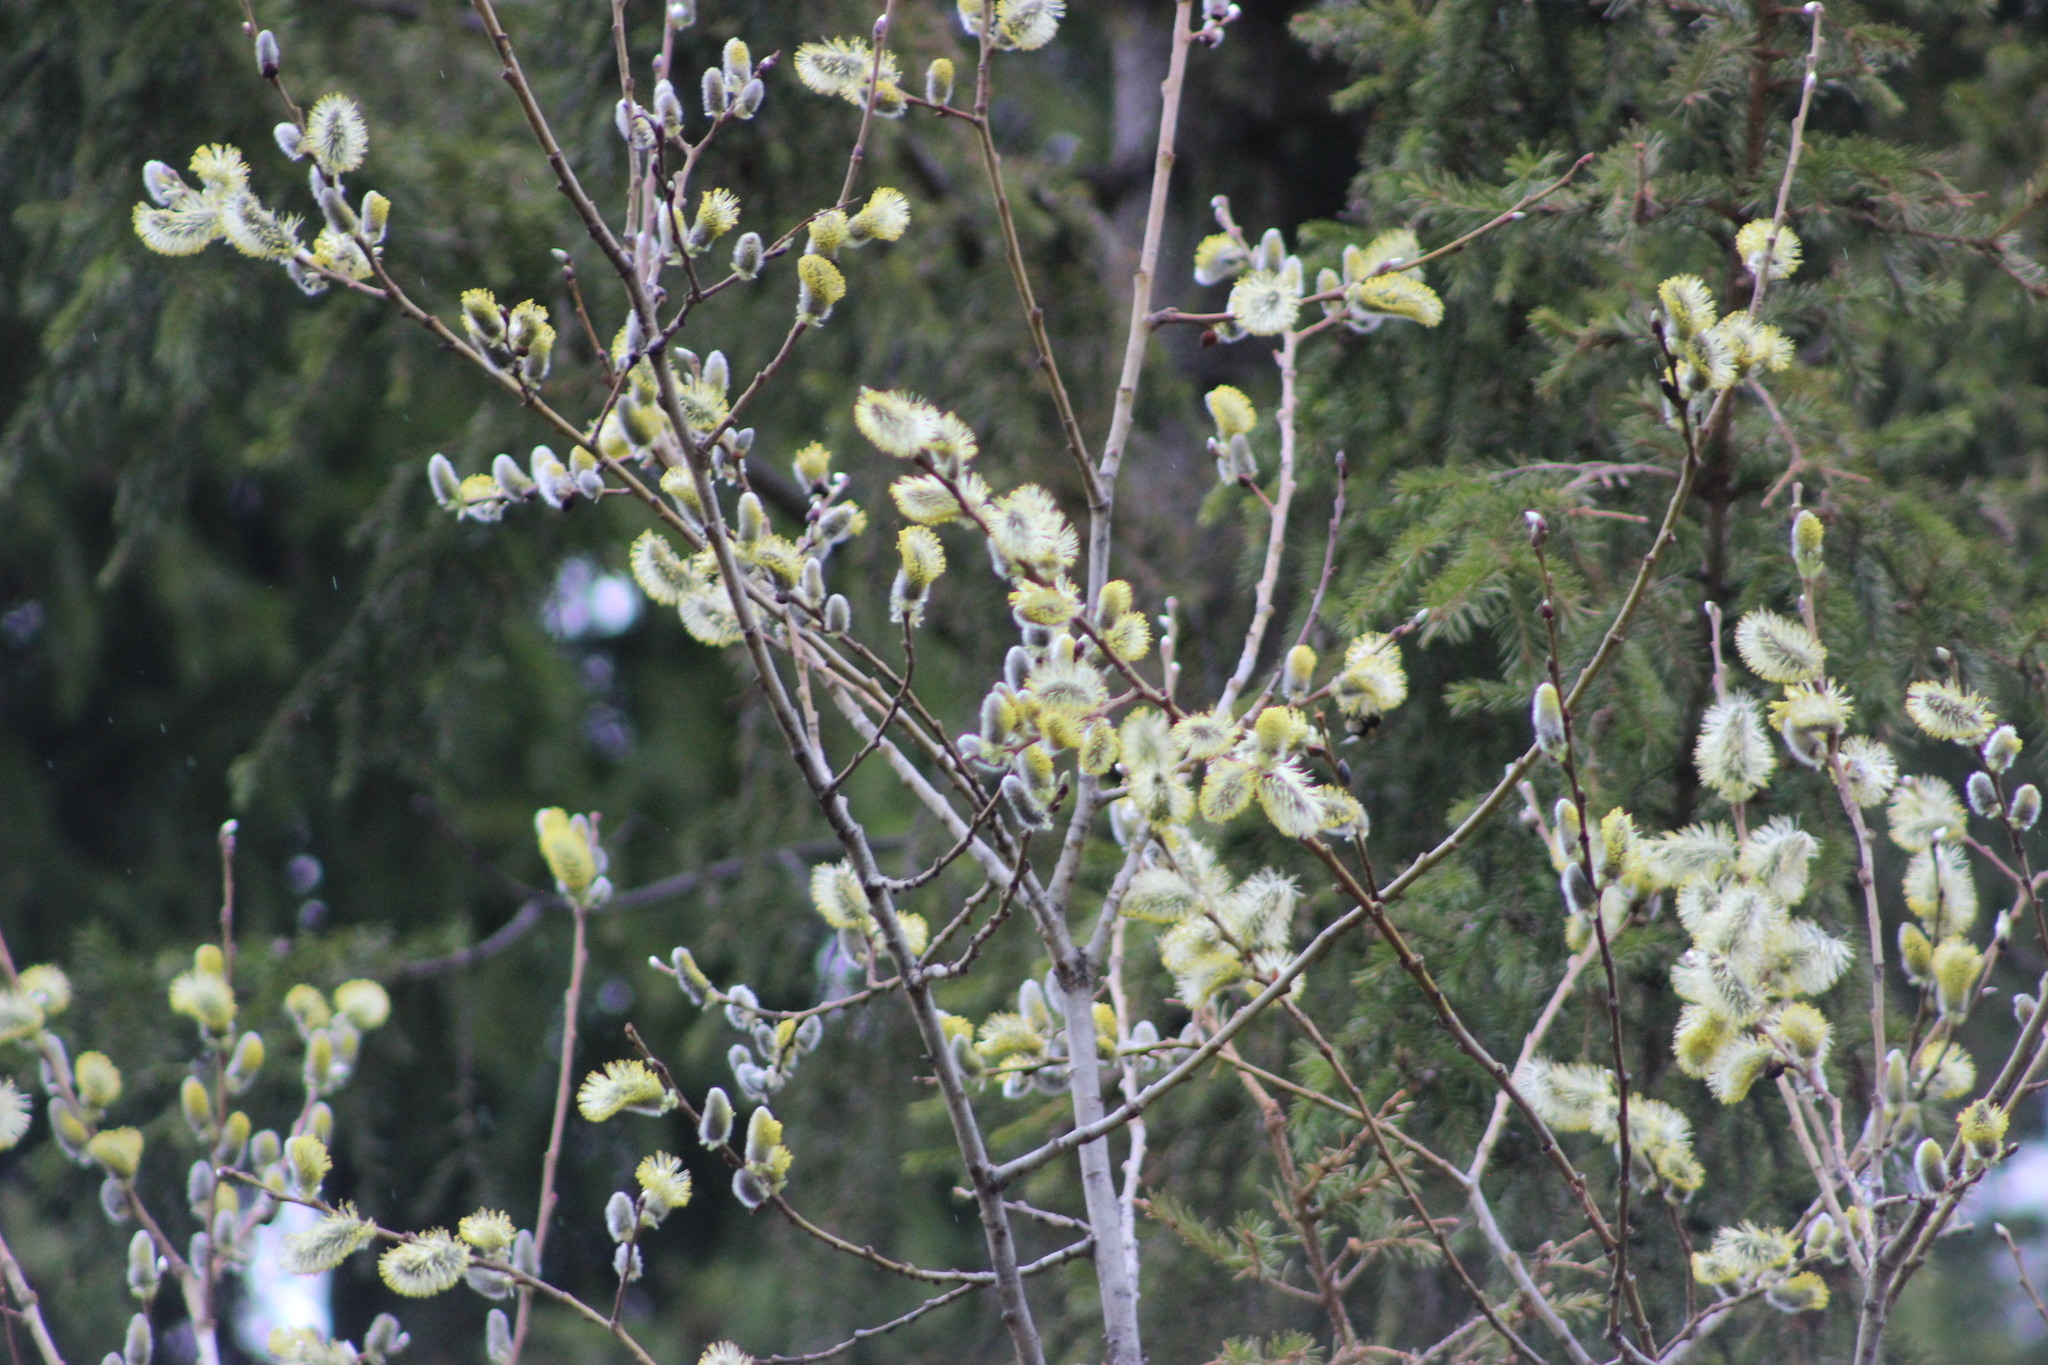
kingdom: Plantae
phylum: Tracheophyta
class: Magnoliopsida
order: Malpighiales
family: Salicaceae
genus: Salix
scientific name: Salix caprea
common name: Goat willow
